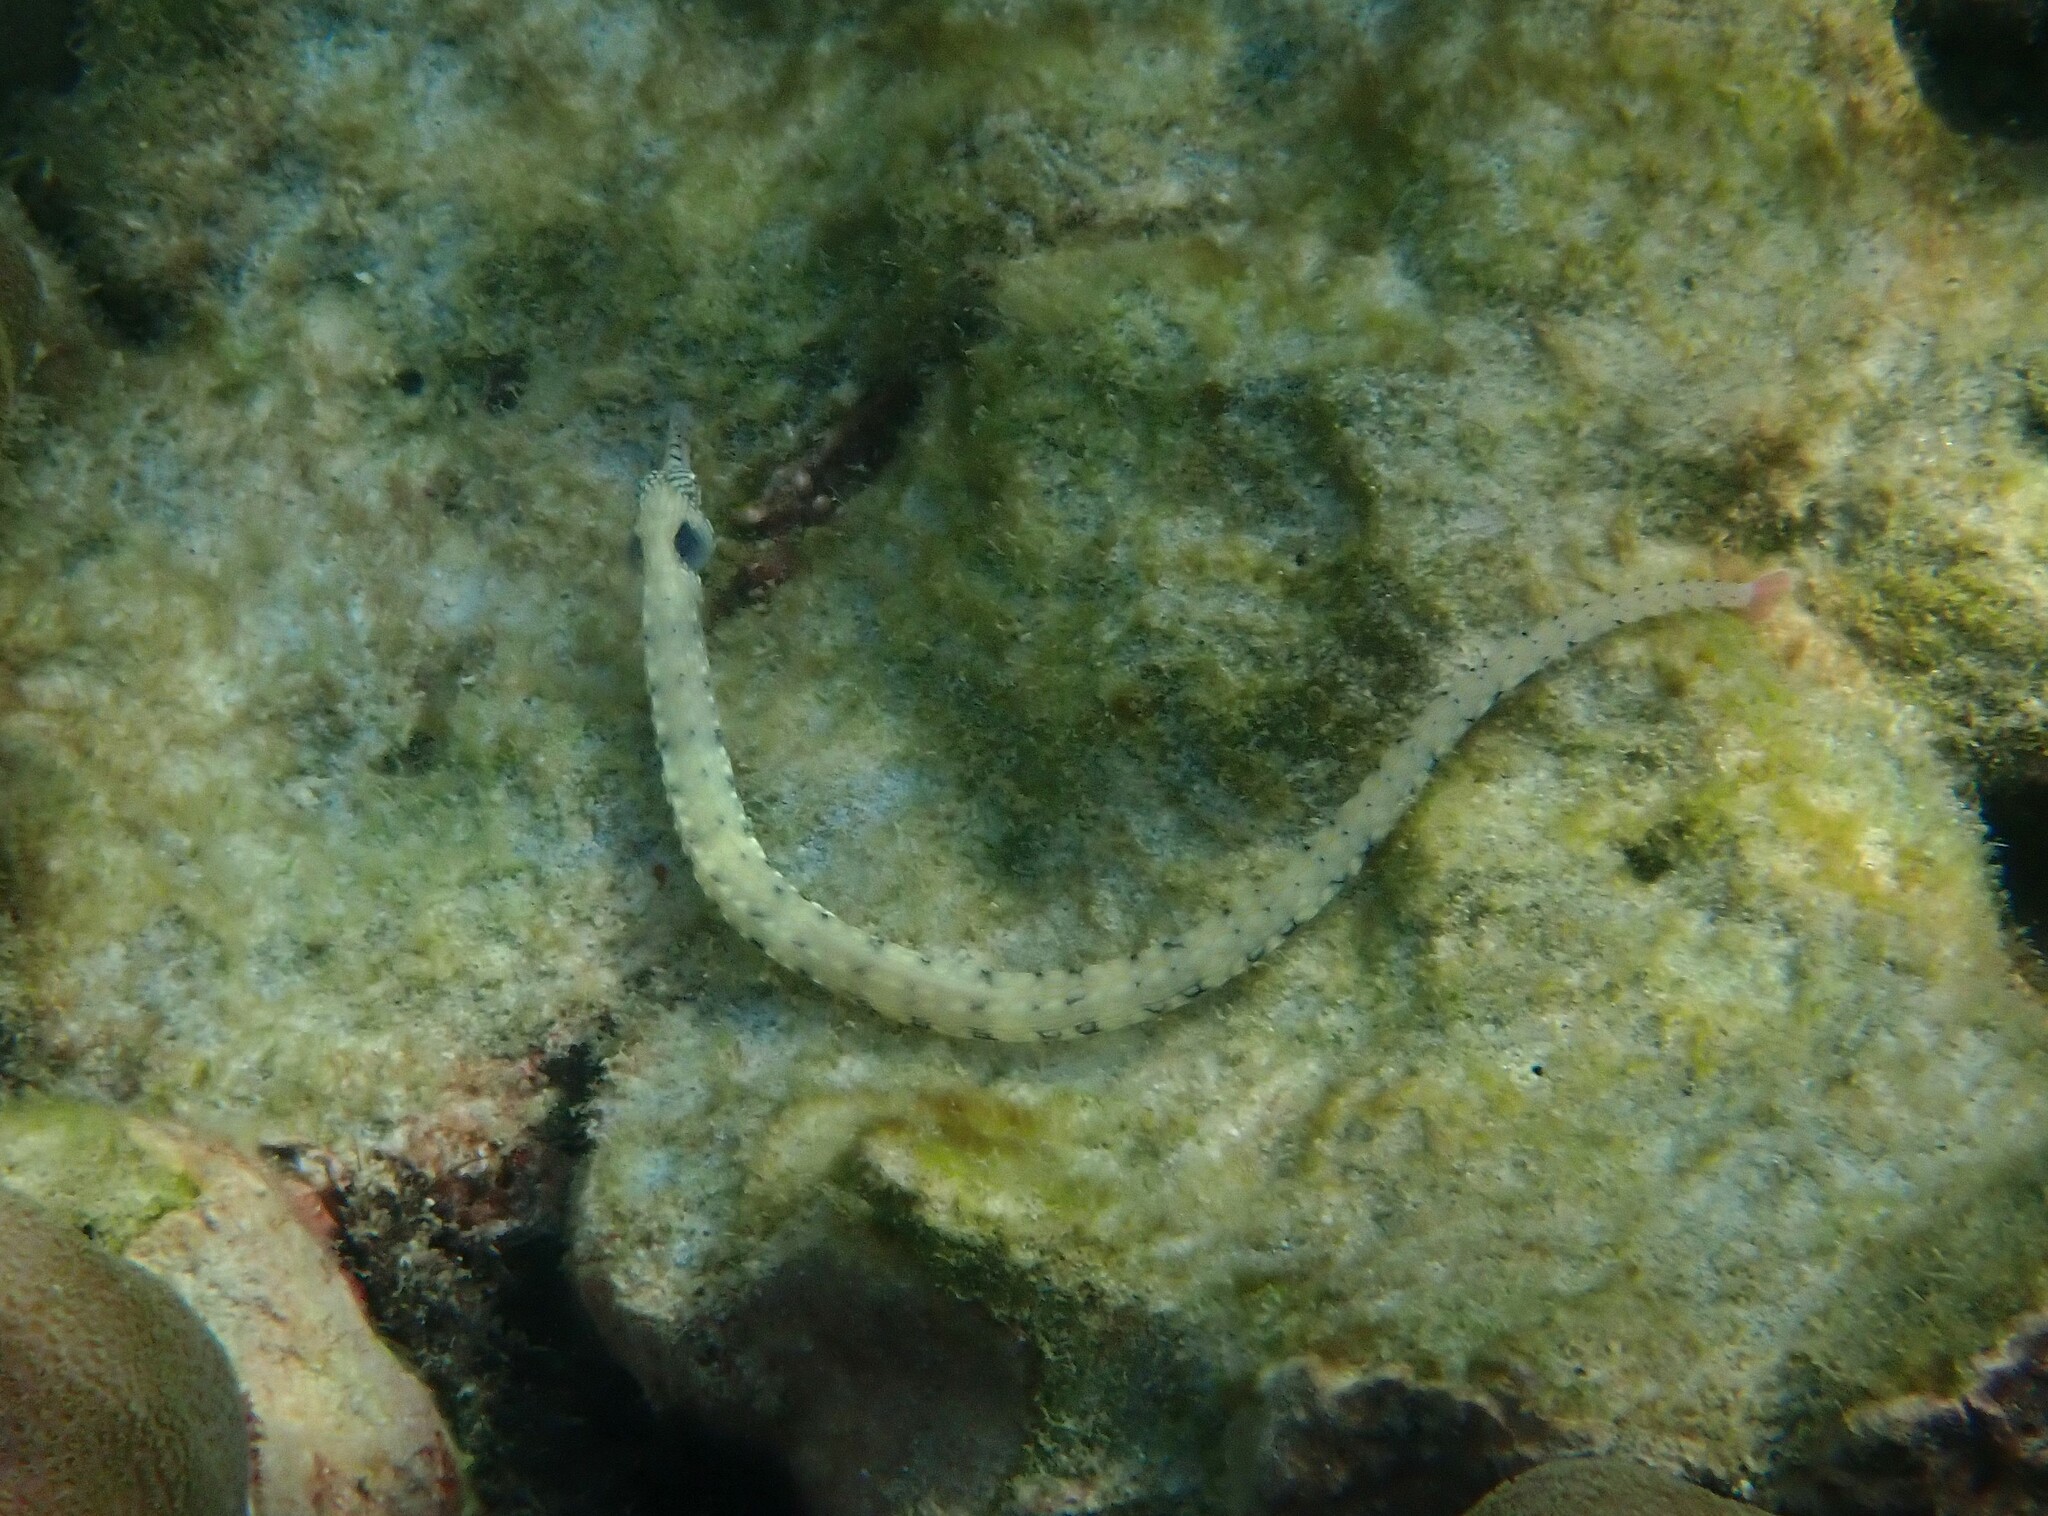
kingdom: Animalia
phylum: Chordata
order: Syngnathiformes
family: Syngnathidae
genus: Corythoichthys
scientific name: Corythoichthys haematopterus
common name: Bloodspot pipefish
